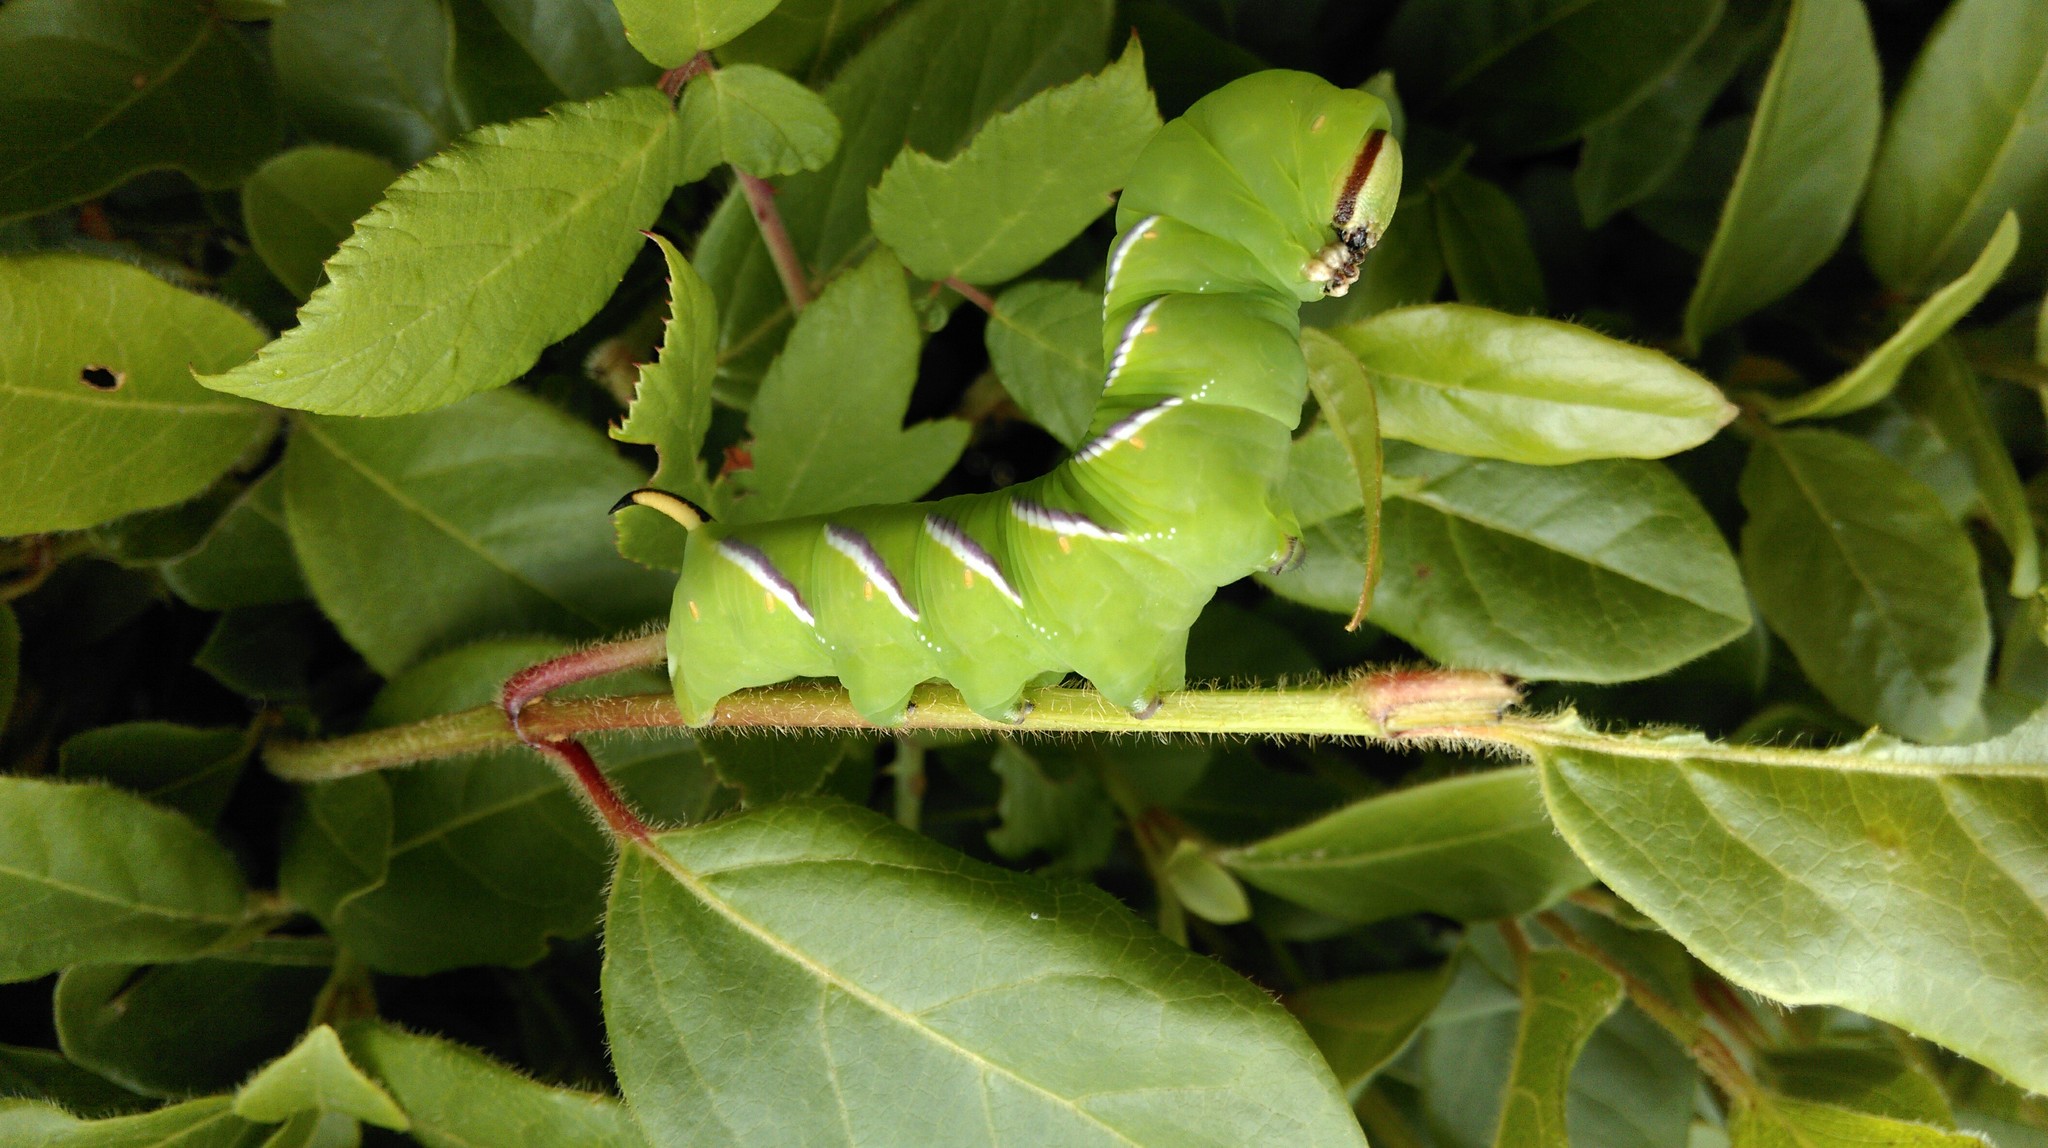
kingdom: Animalia
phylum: Arthropoda
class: Insecta
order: Lepidoptera
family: Sphingidae
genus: Sphinx
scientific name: Sphinx ligustri
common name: Privet hawk-moth
